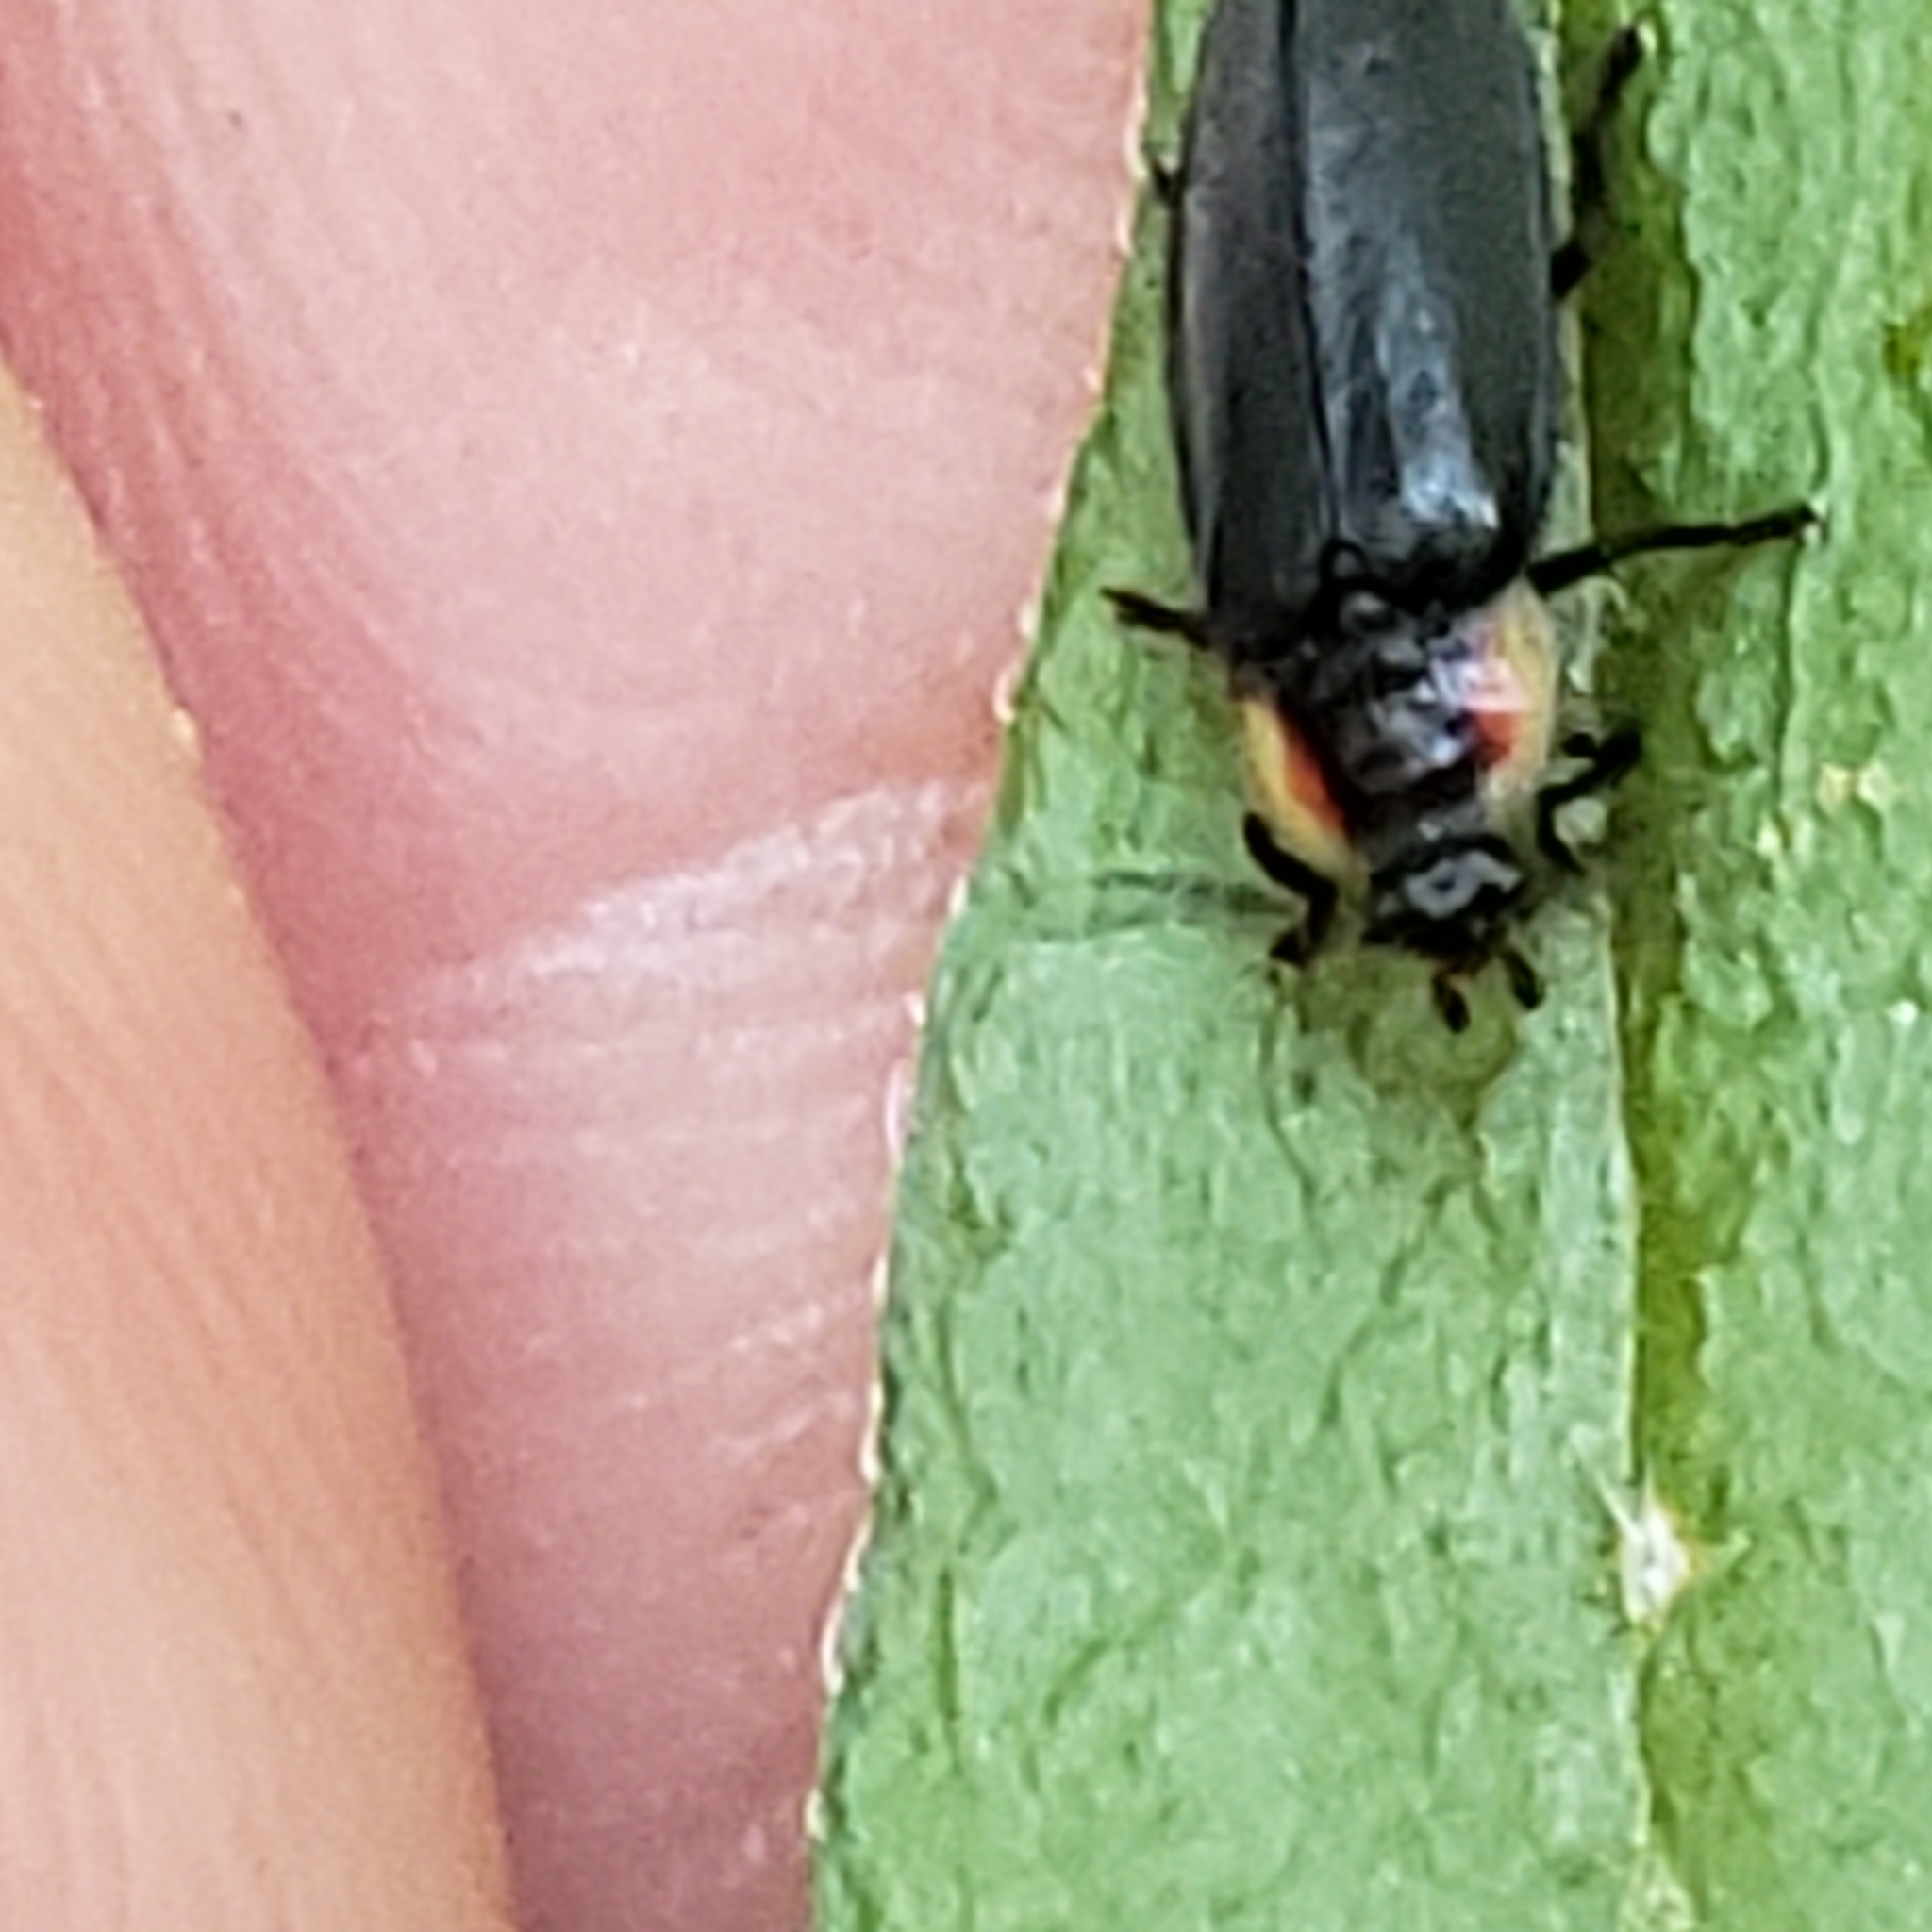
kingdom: Animalia
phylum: Arthropoda
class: Insecta
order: Coleoptera
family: Lampyridae
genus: Pyropyga
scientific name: Pyropyga decipiens
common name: Sneaky elf
